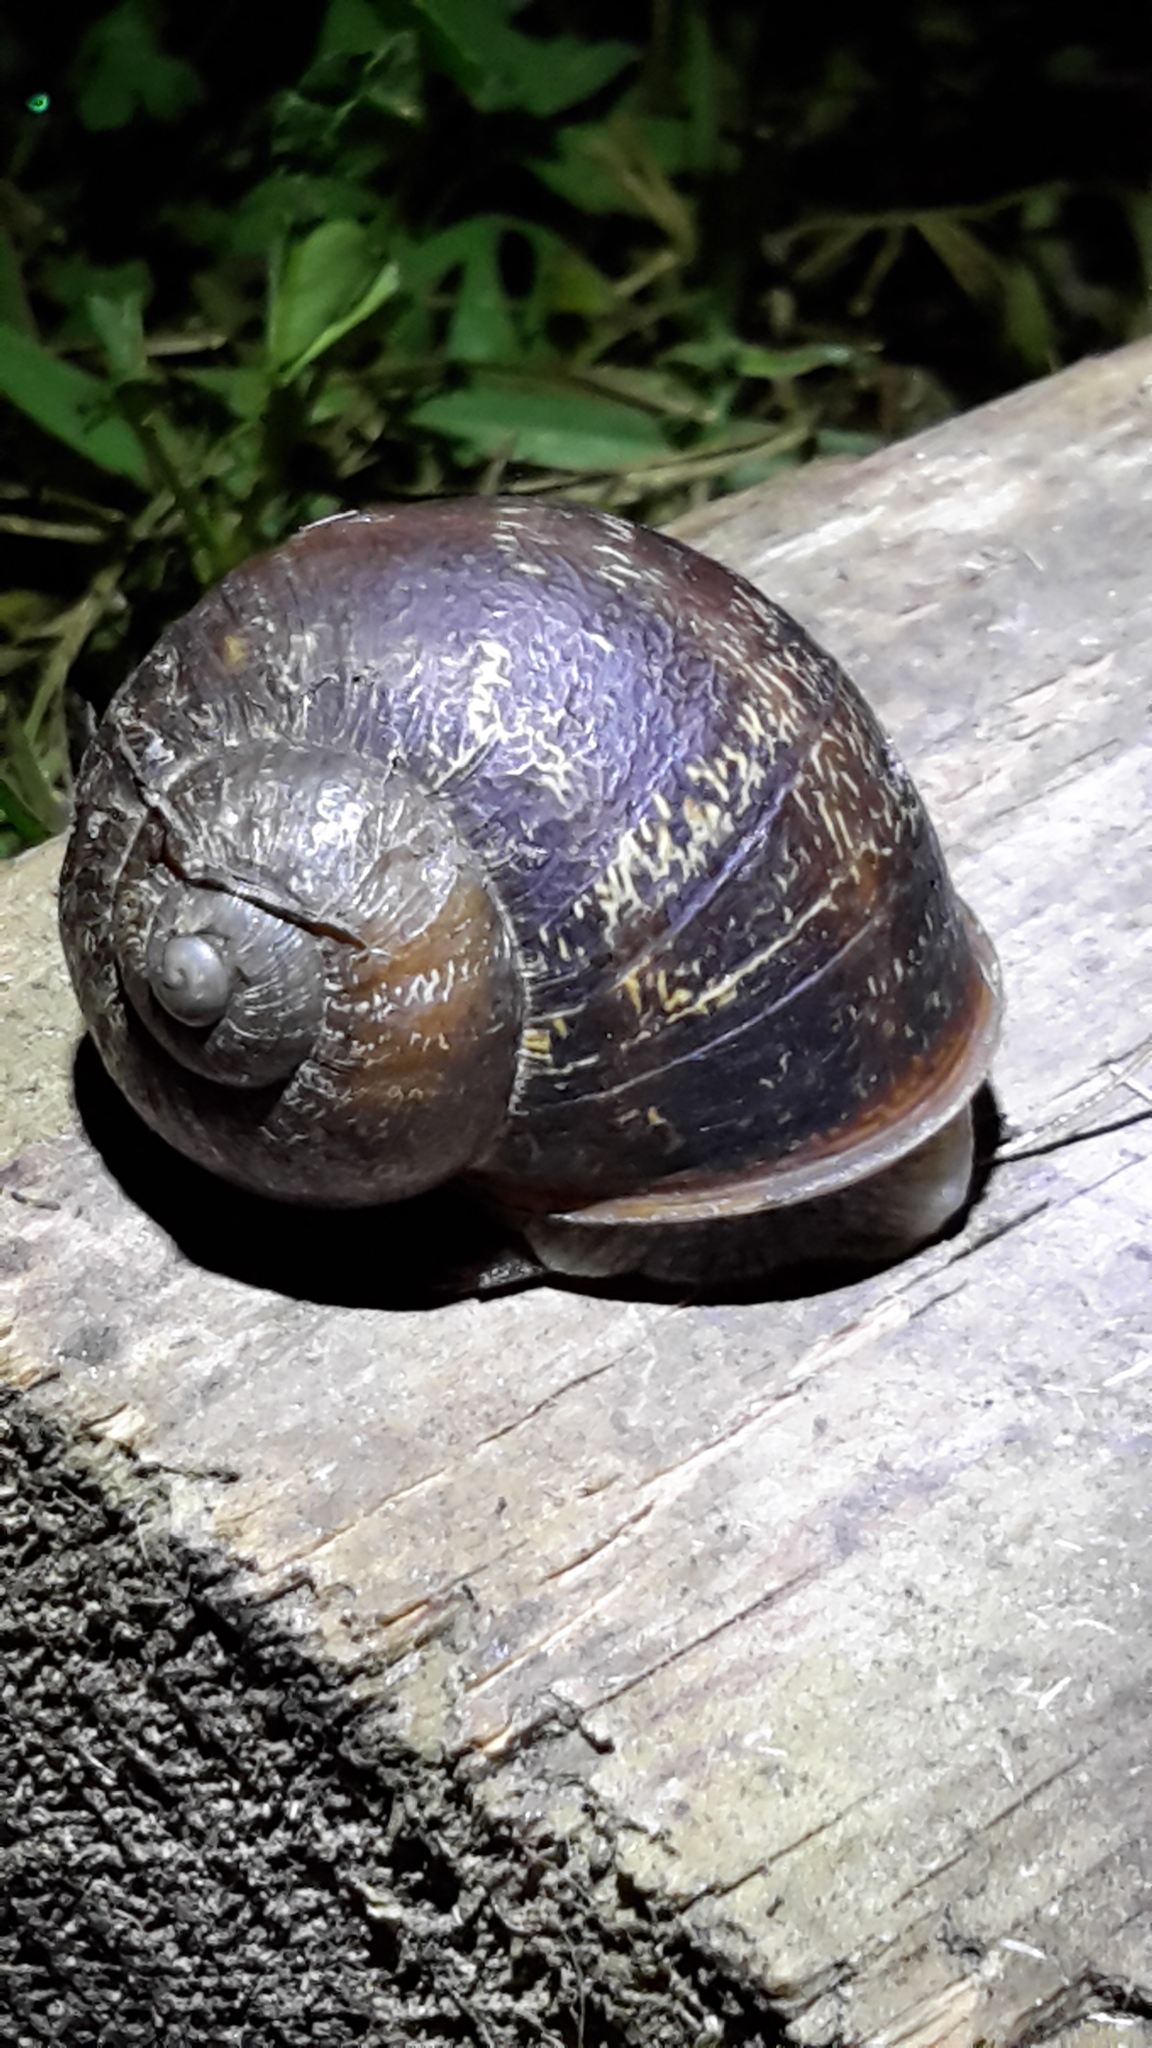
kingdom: Animalia
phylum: Mollusca
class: Gastropoda
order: Stylommatophora
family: Helicidae
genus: Cornu
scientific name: Cornu aspersum
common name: Brown garden snail
